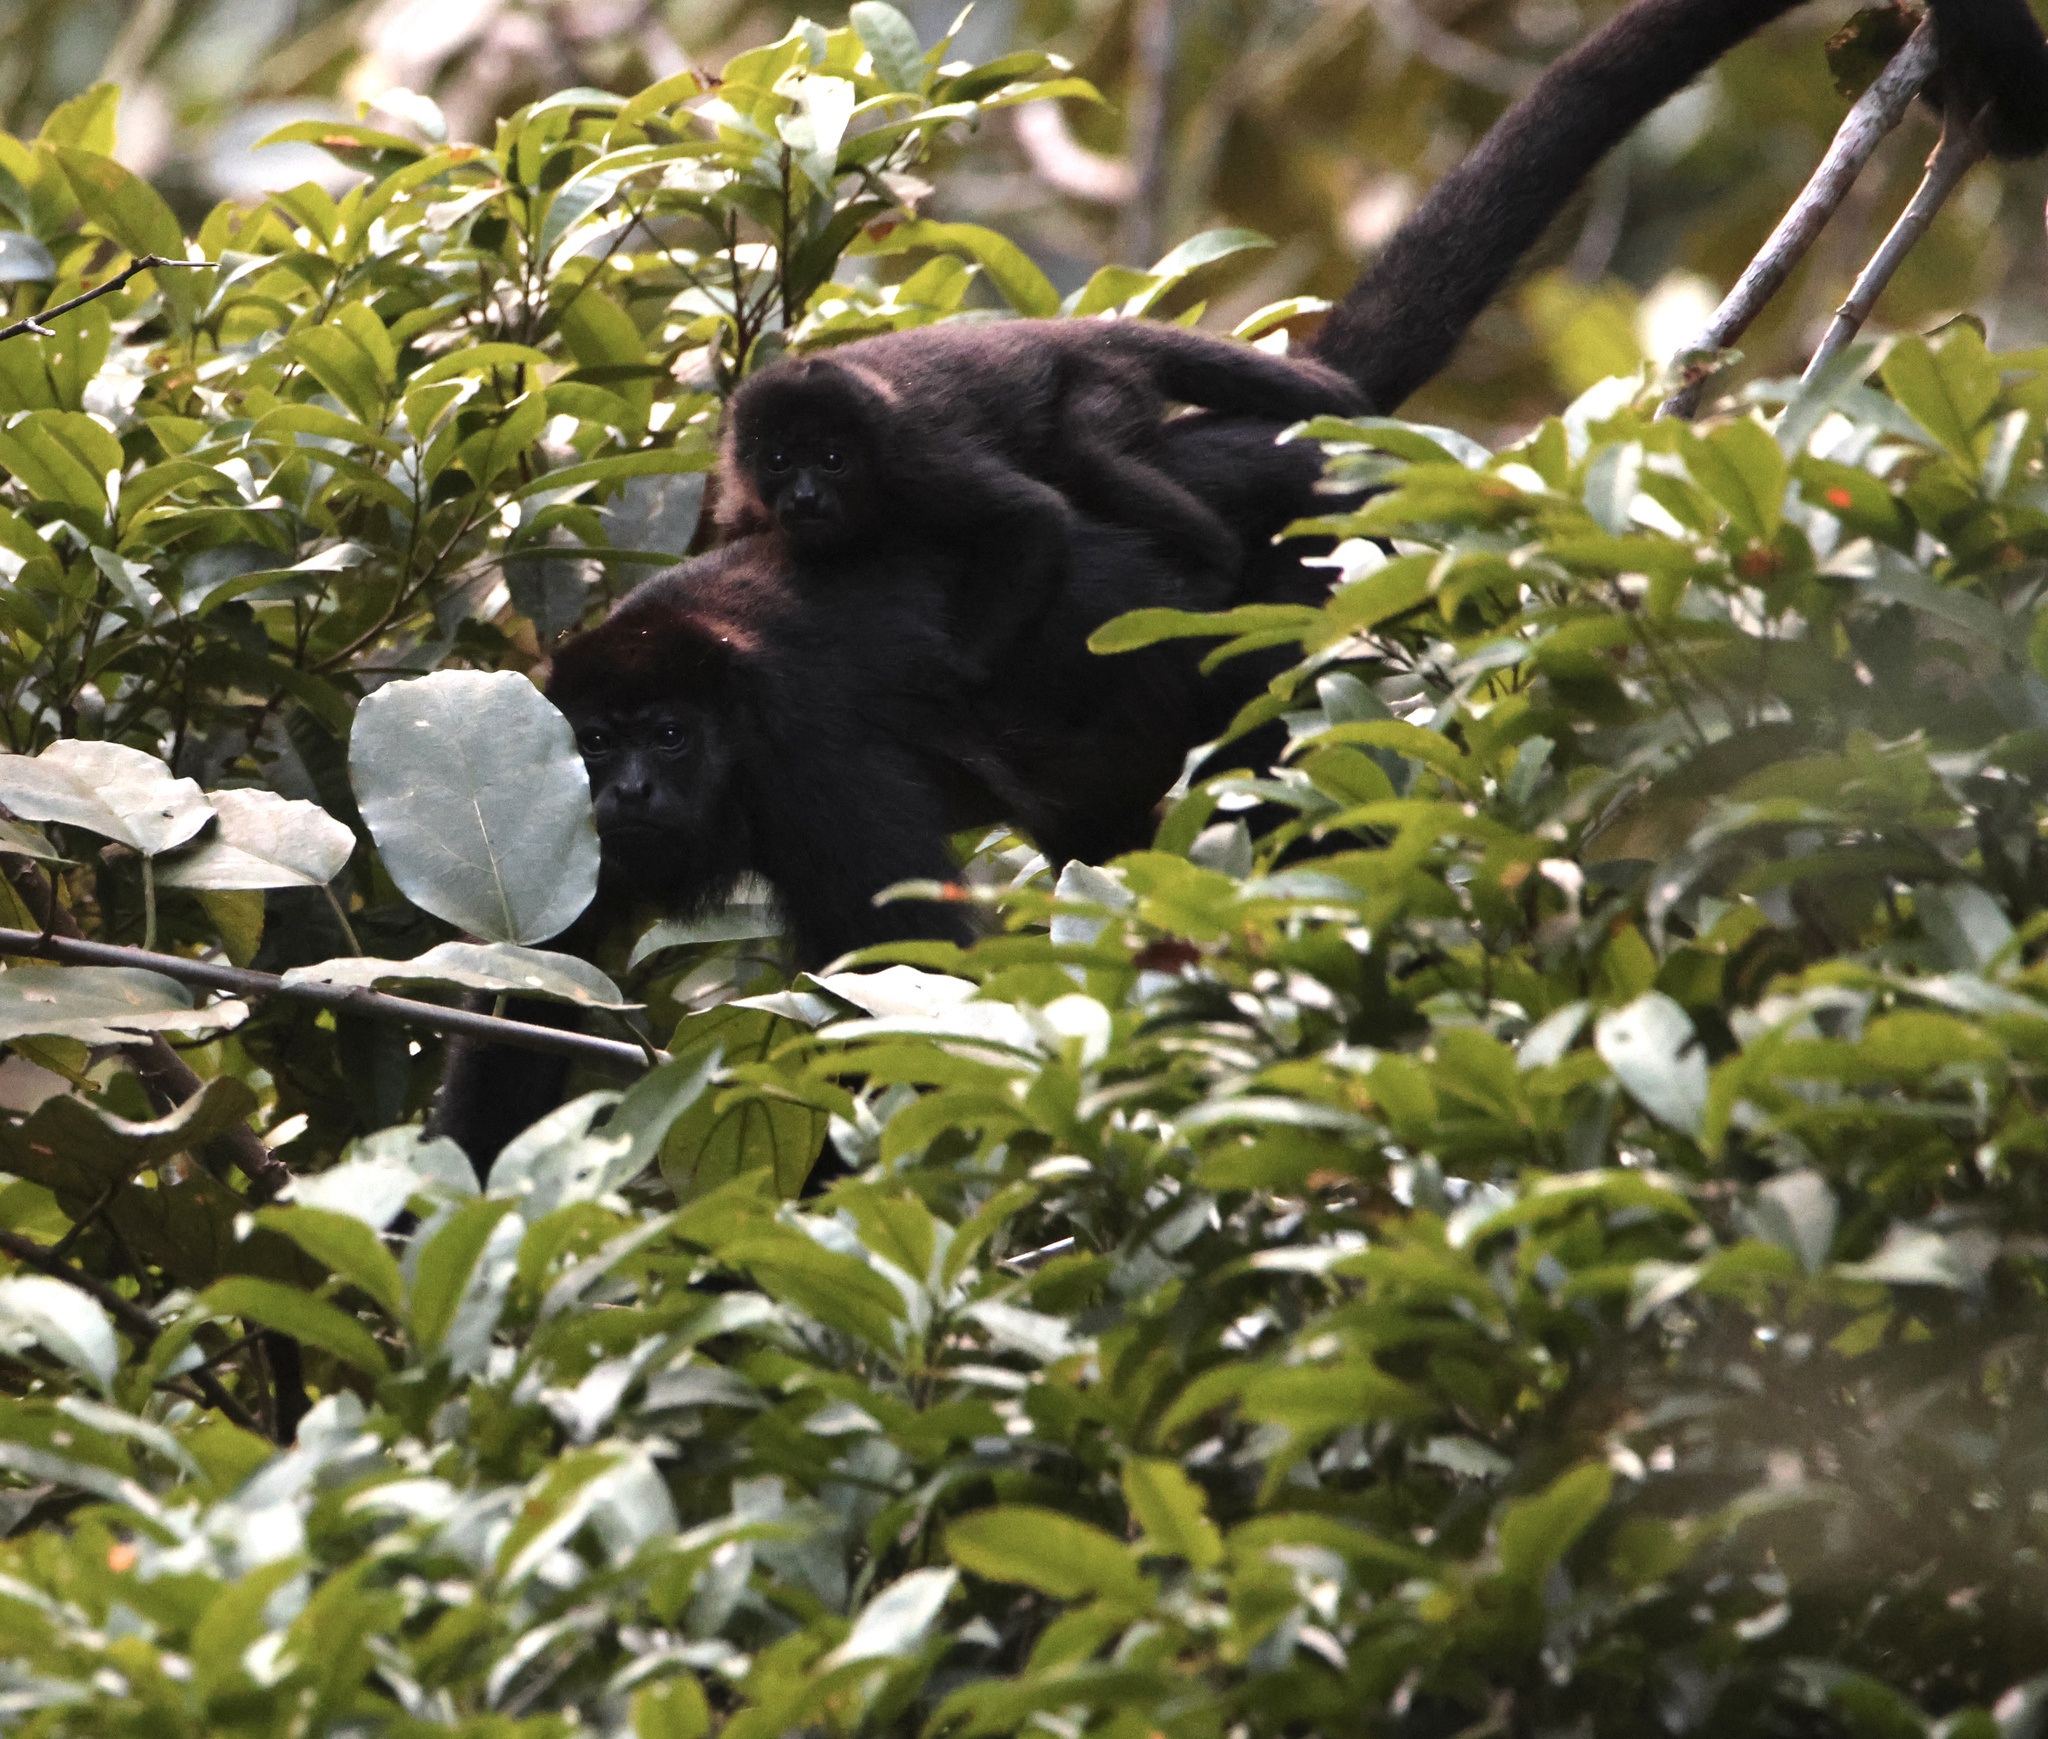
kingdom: Animalia
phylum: Chordata
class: Mammalia
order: Primates
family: Atelidae
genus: Alouatta
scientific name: Alouatta palliata
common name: Mantled howler
